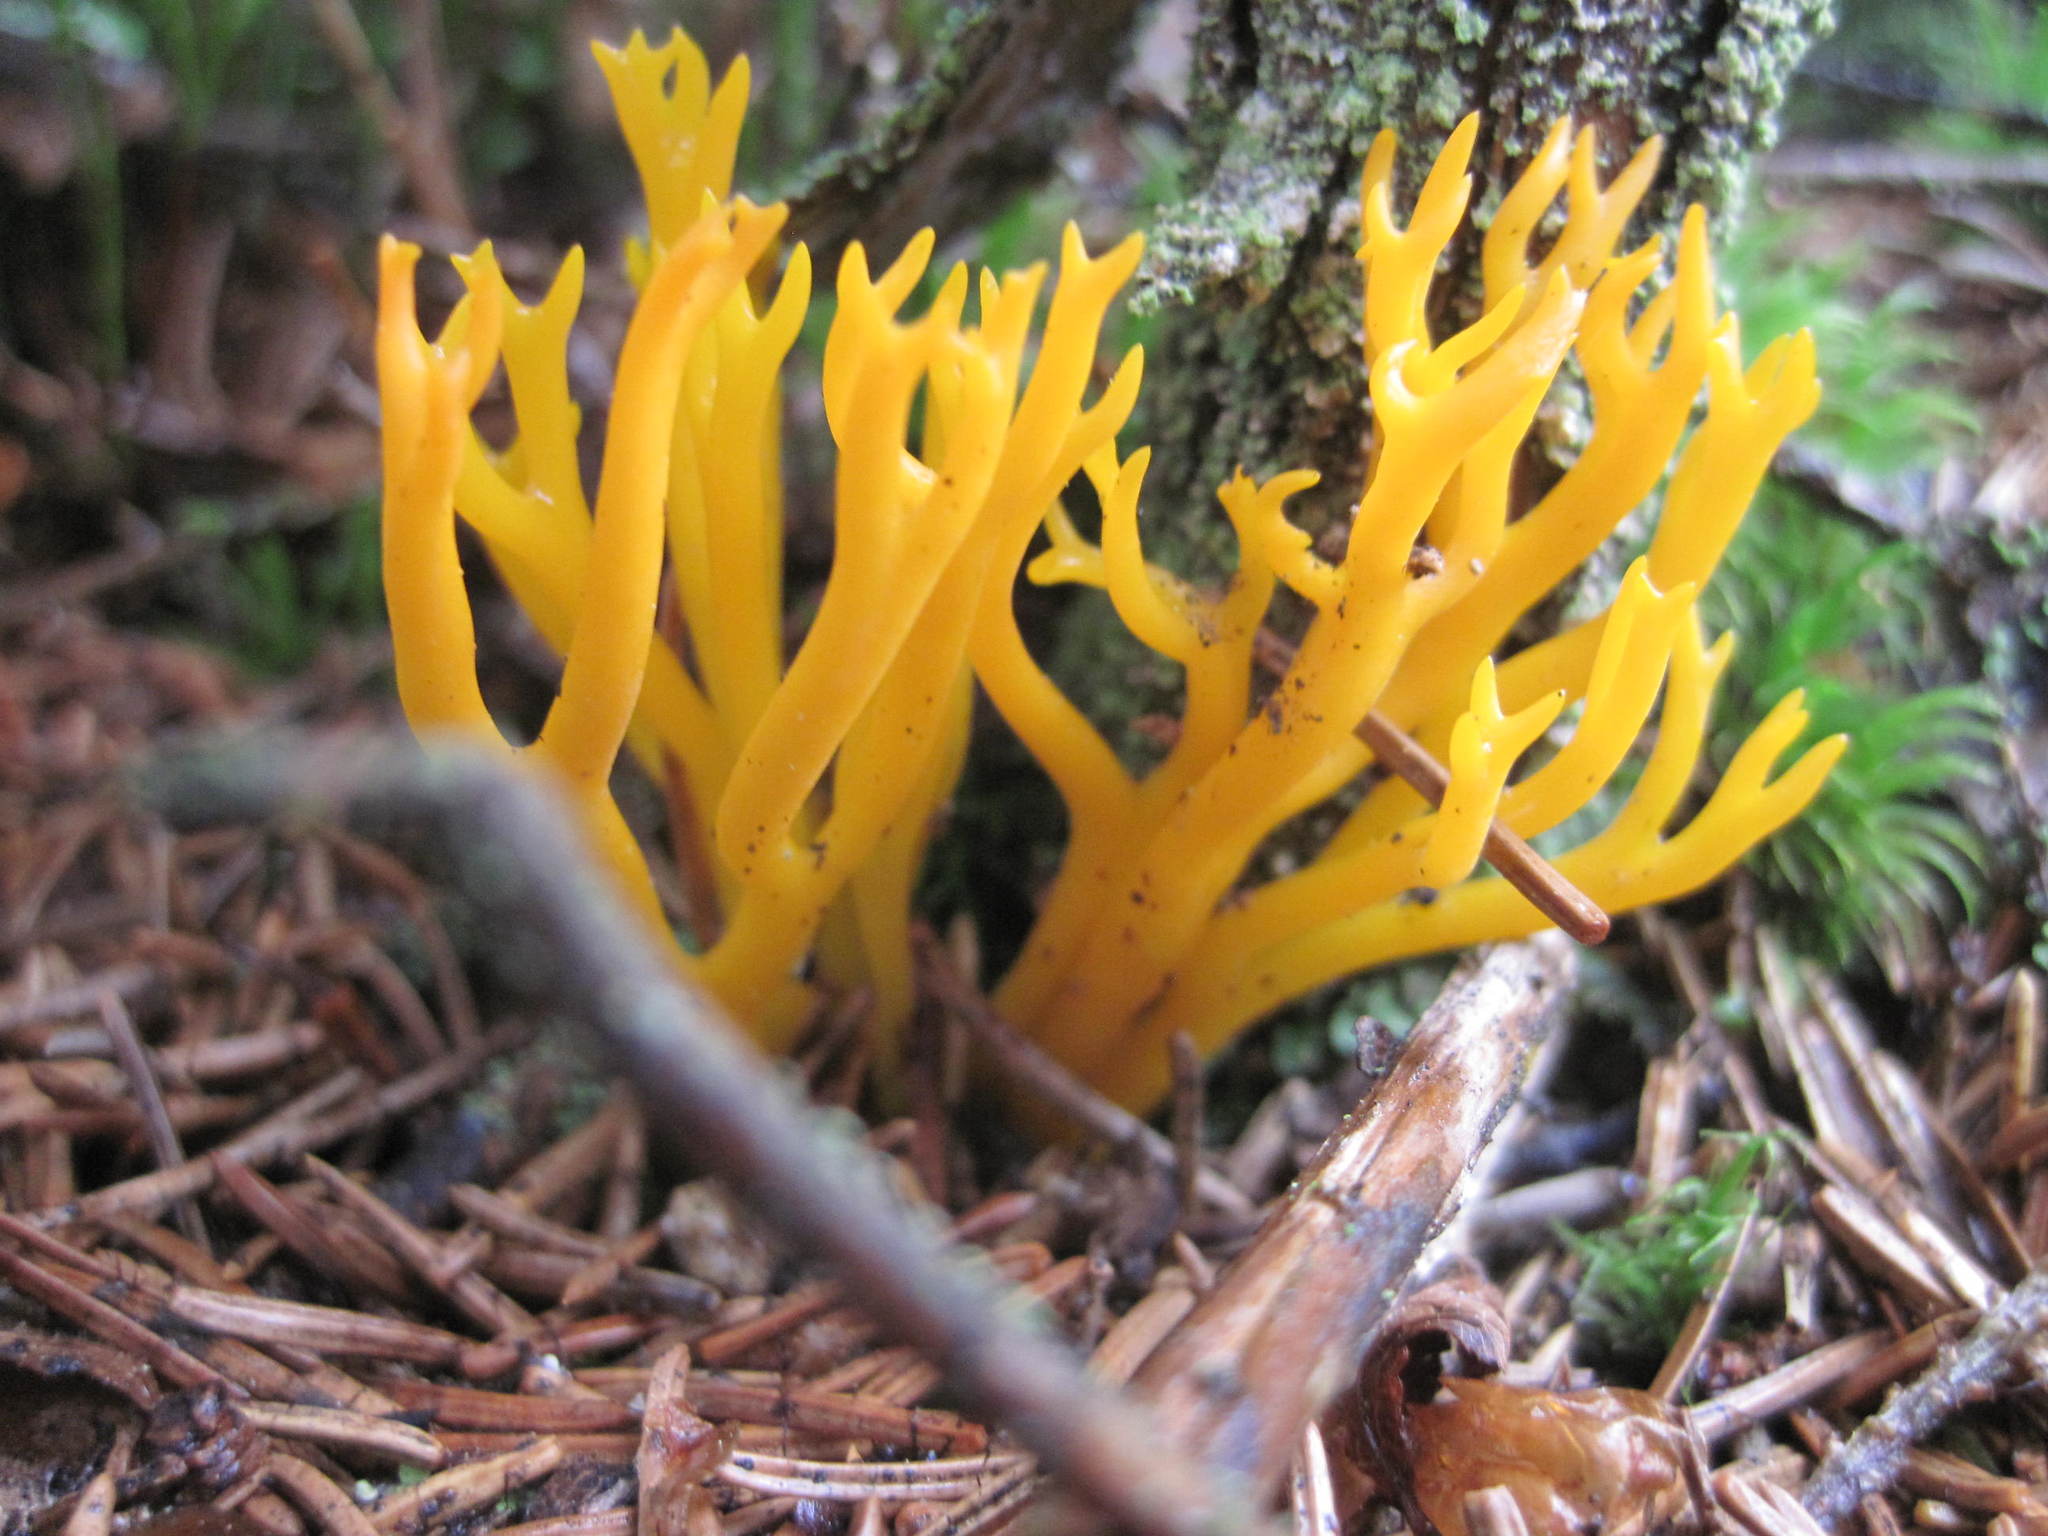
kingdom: Fungi
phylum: Basidiomycota
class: Dacrymycetes
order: Dacrymycetales
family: Dacrymycetaceae
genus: Calocera
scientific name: Calocera viscosa
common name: Yellow stagshorn
